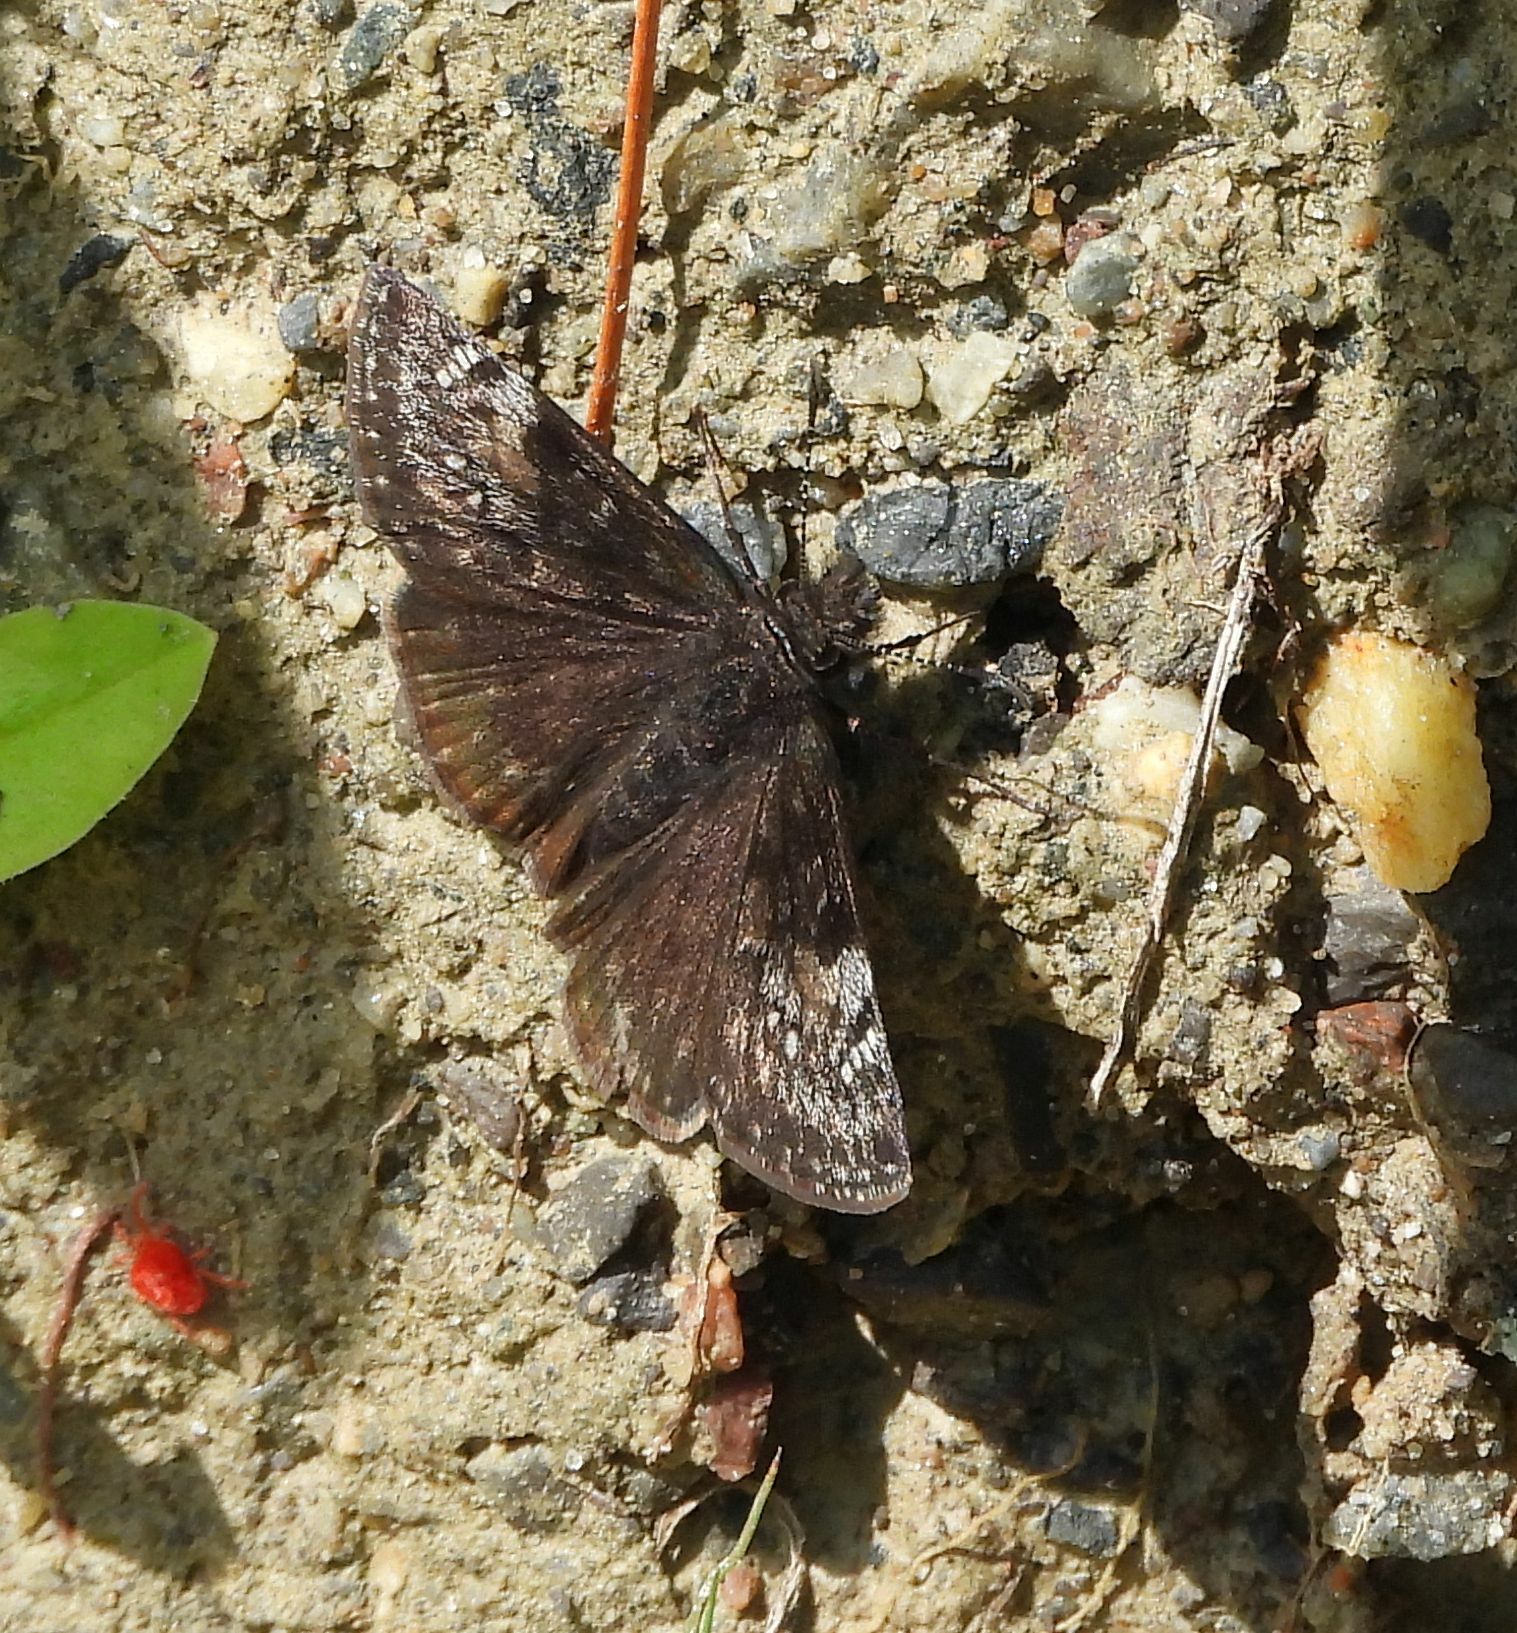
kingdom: Animalia
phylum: Arthropoda
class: Insecta
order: Lepidoptera
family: Hesperiidae
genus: Erynnis
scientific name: Erynnis lucilius
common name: Columbine duskywing
